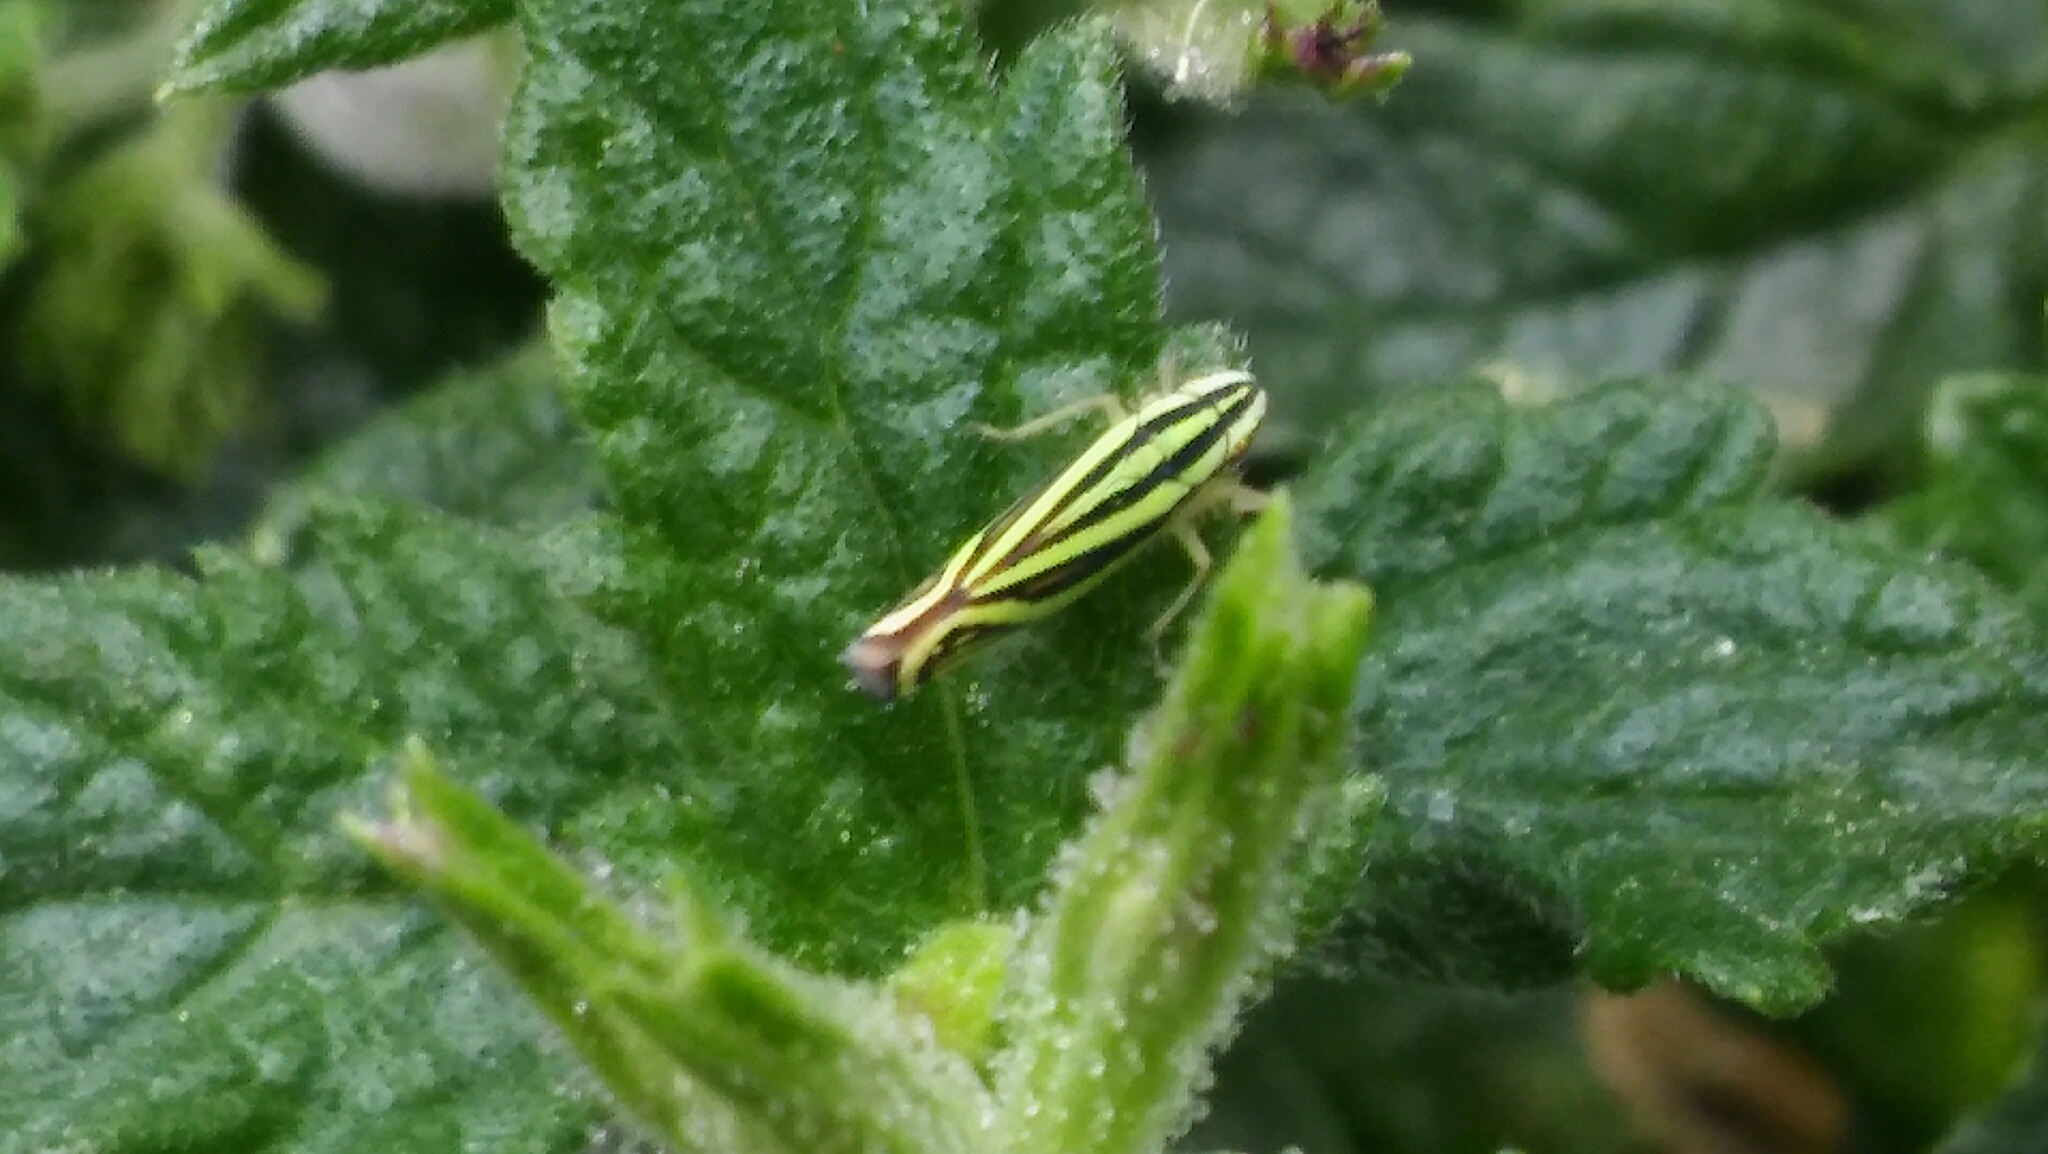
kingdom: Animalia
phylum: Arthropoda
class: Insecta
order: Hemiptera
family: Cicadellidae
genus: Sibovia
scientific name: Sibovia sagata
